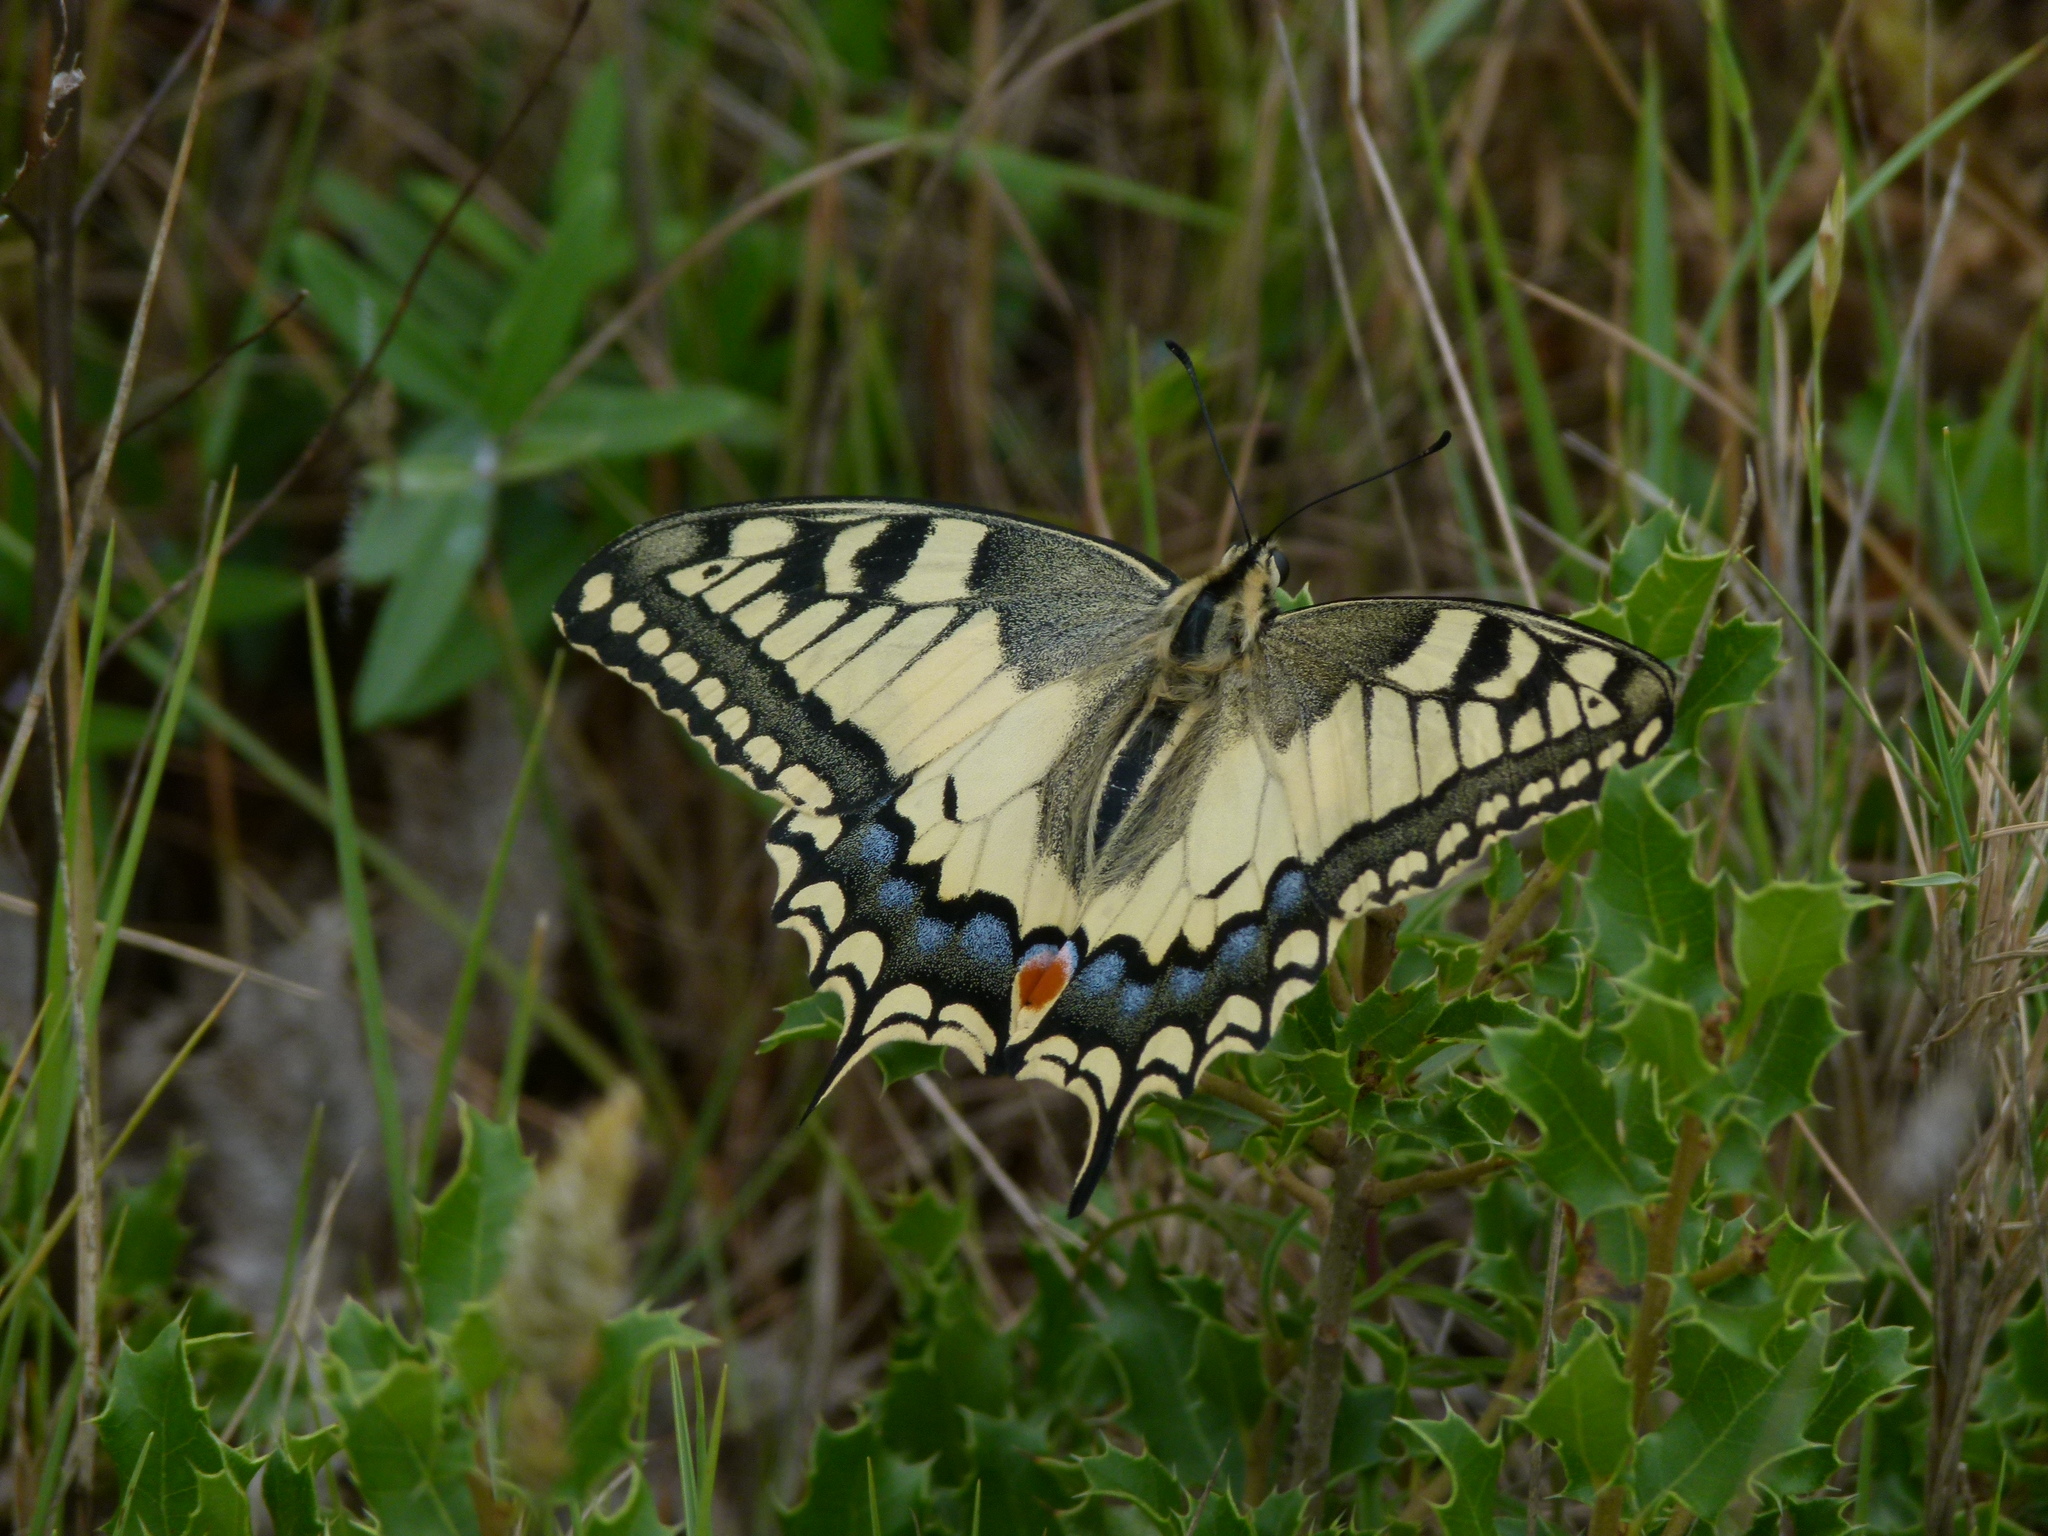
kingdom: Animalia
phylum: Arthropoda
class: Insecta
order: Lepidoptera
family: Papilionidae
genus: Papilio
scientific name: Papilio machaon
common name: Swallowtail
